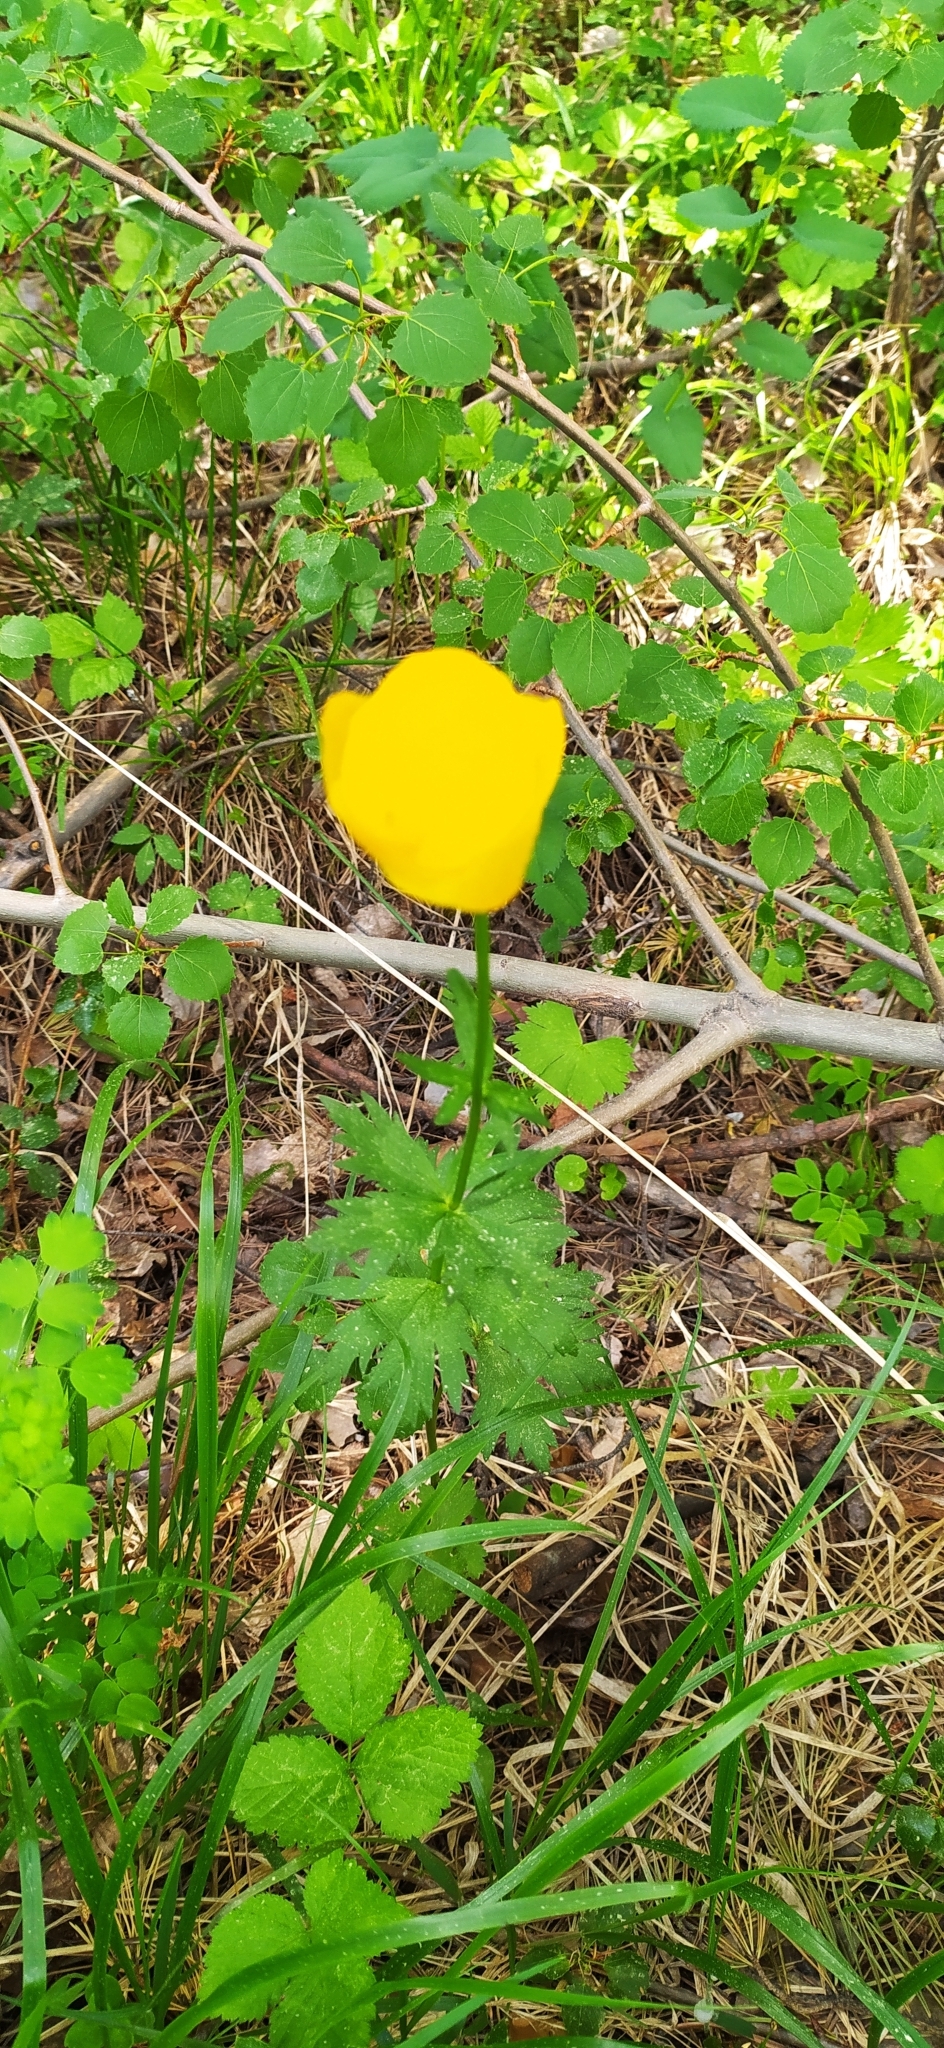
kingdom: Plantae
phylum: Tracheophyta
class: Magnoliopsida
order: Ranunculales
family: Ranunculaceae
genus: Trollius
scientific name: Trollius europaeus
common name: European globeflower
